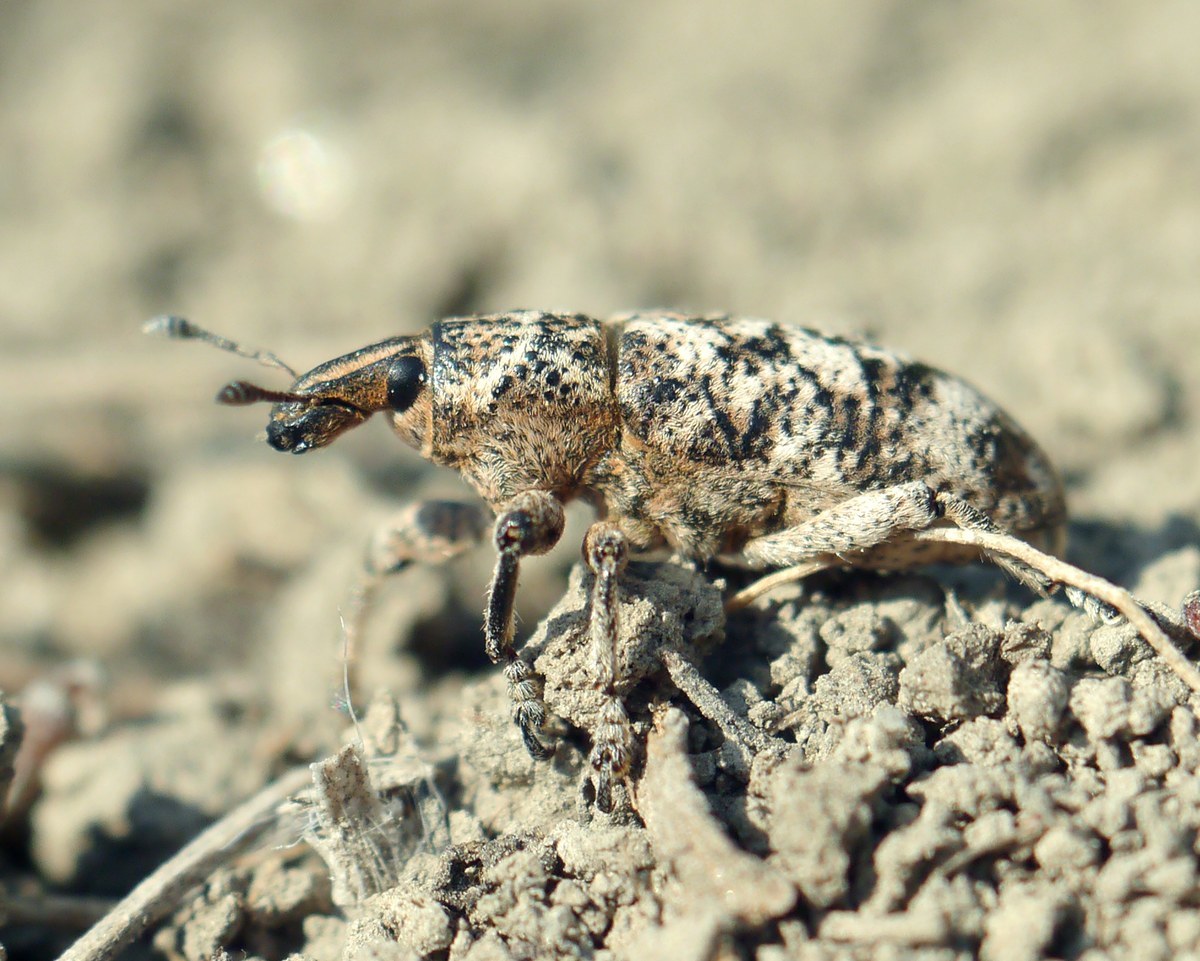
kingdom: Animalia
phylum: Arthropoda
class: Insecta
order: Coleoptera
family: Curculionidae
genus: Cyphocleonus
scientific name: Cyphocleonus dealbatus
